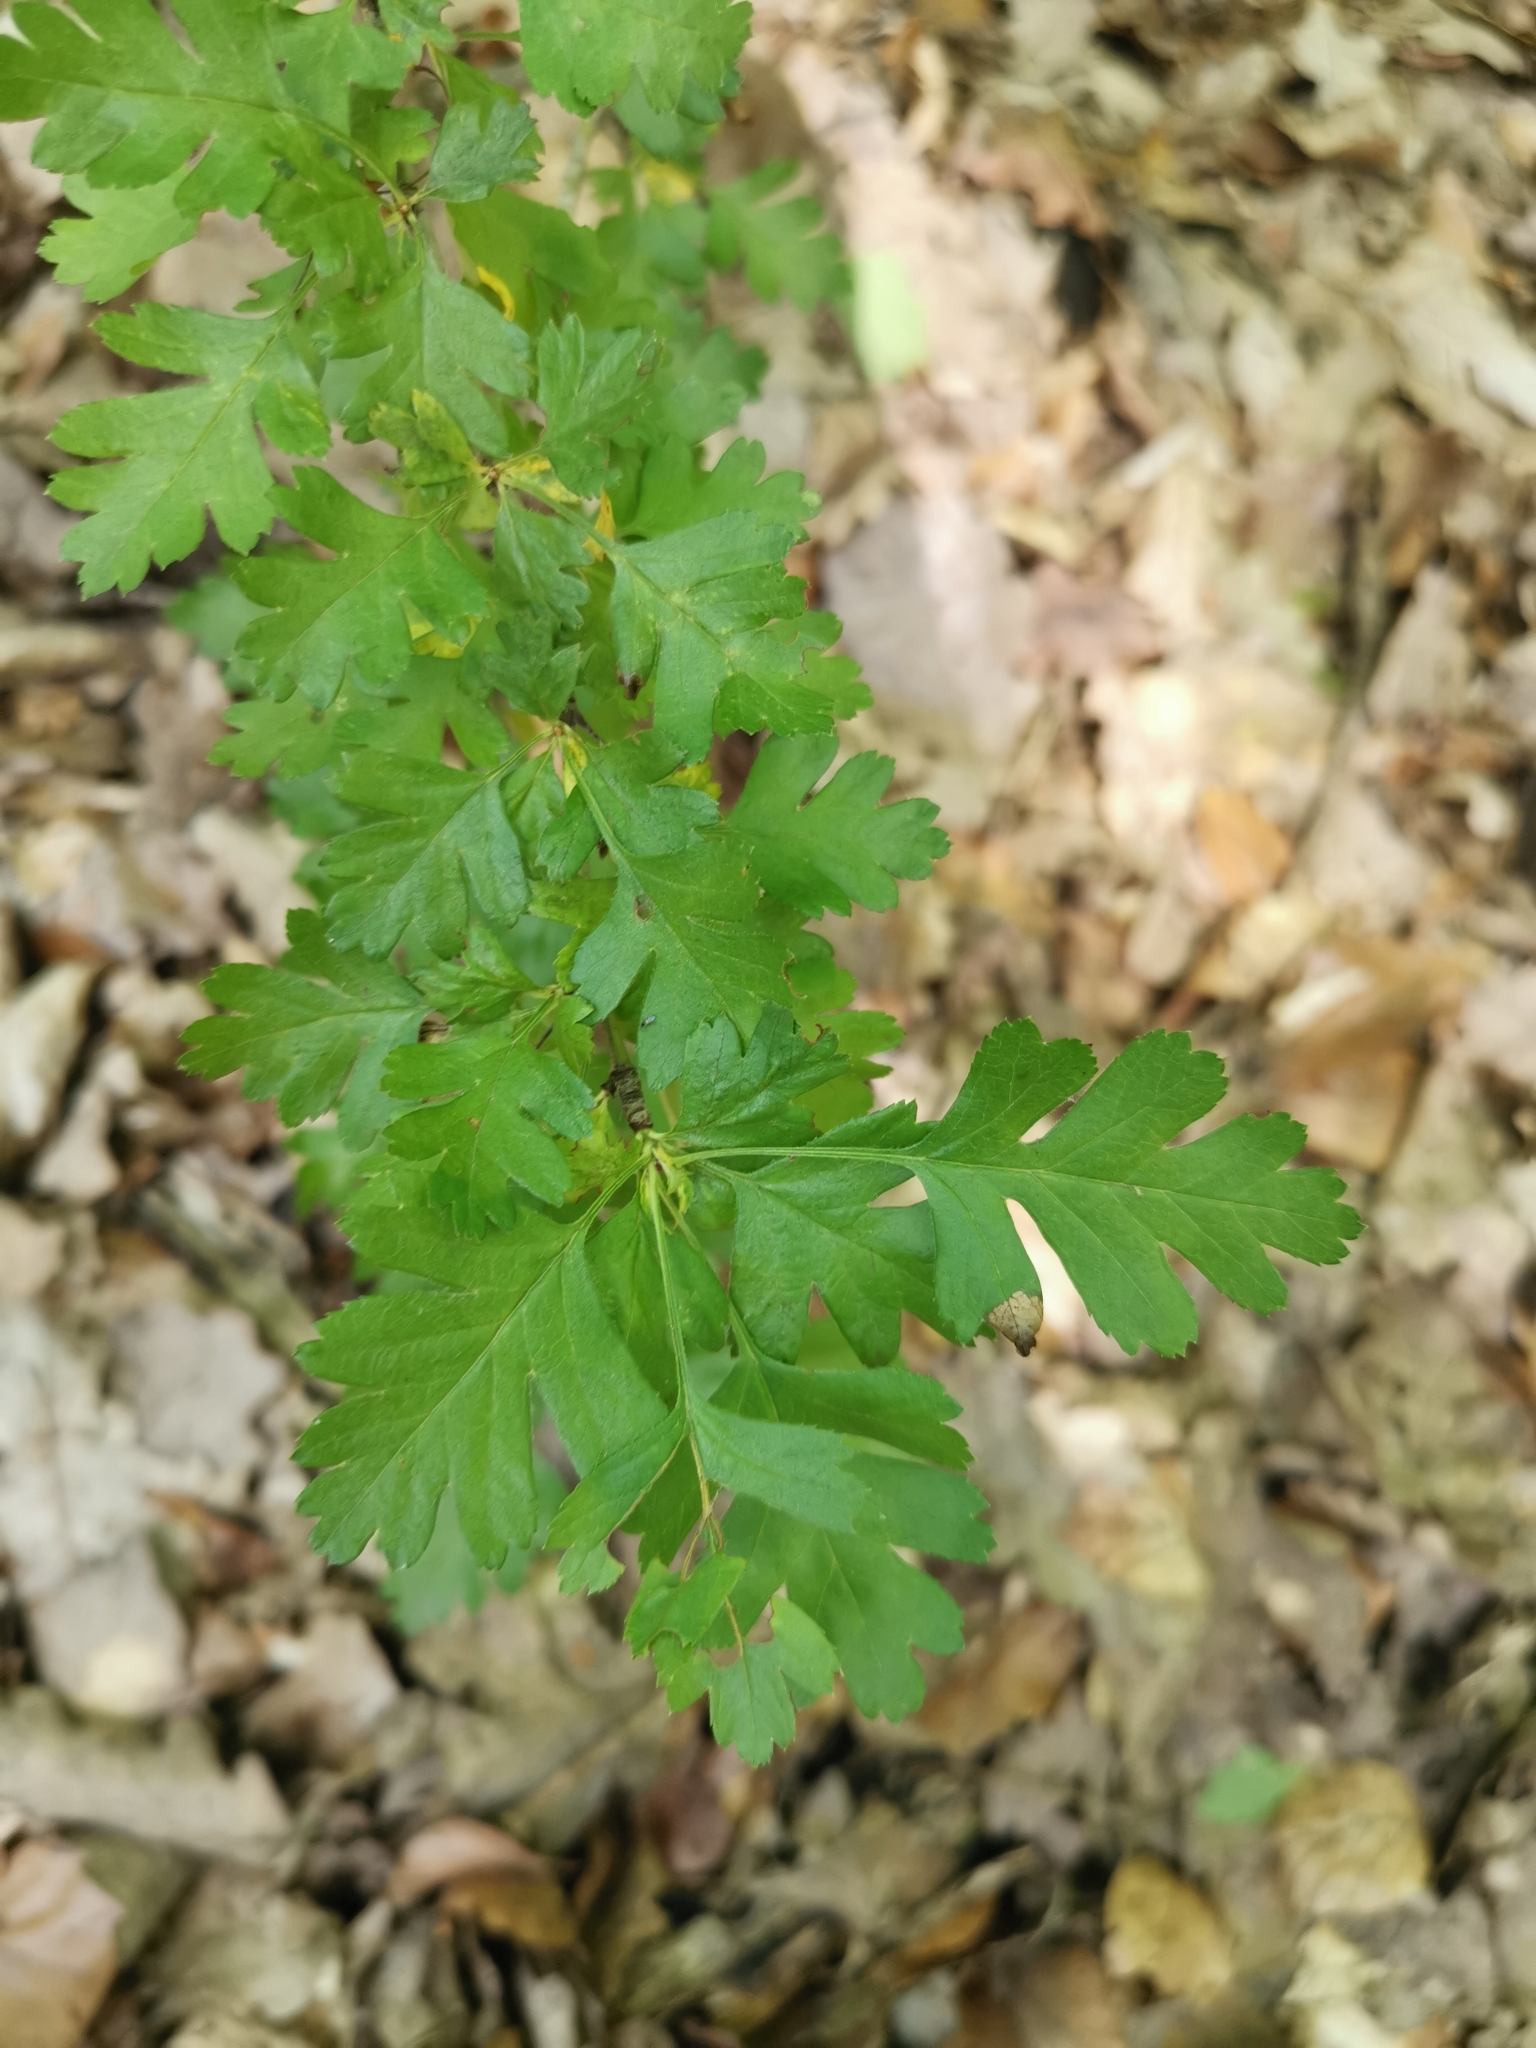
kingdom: Plantae
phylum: Tracheophyta
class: Magnoliopsida
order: Rosales
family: Rosaceae
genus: Crataegus
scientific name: Crataegus monogyna
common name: Hawthorn
